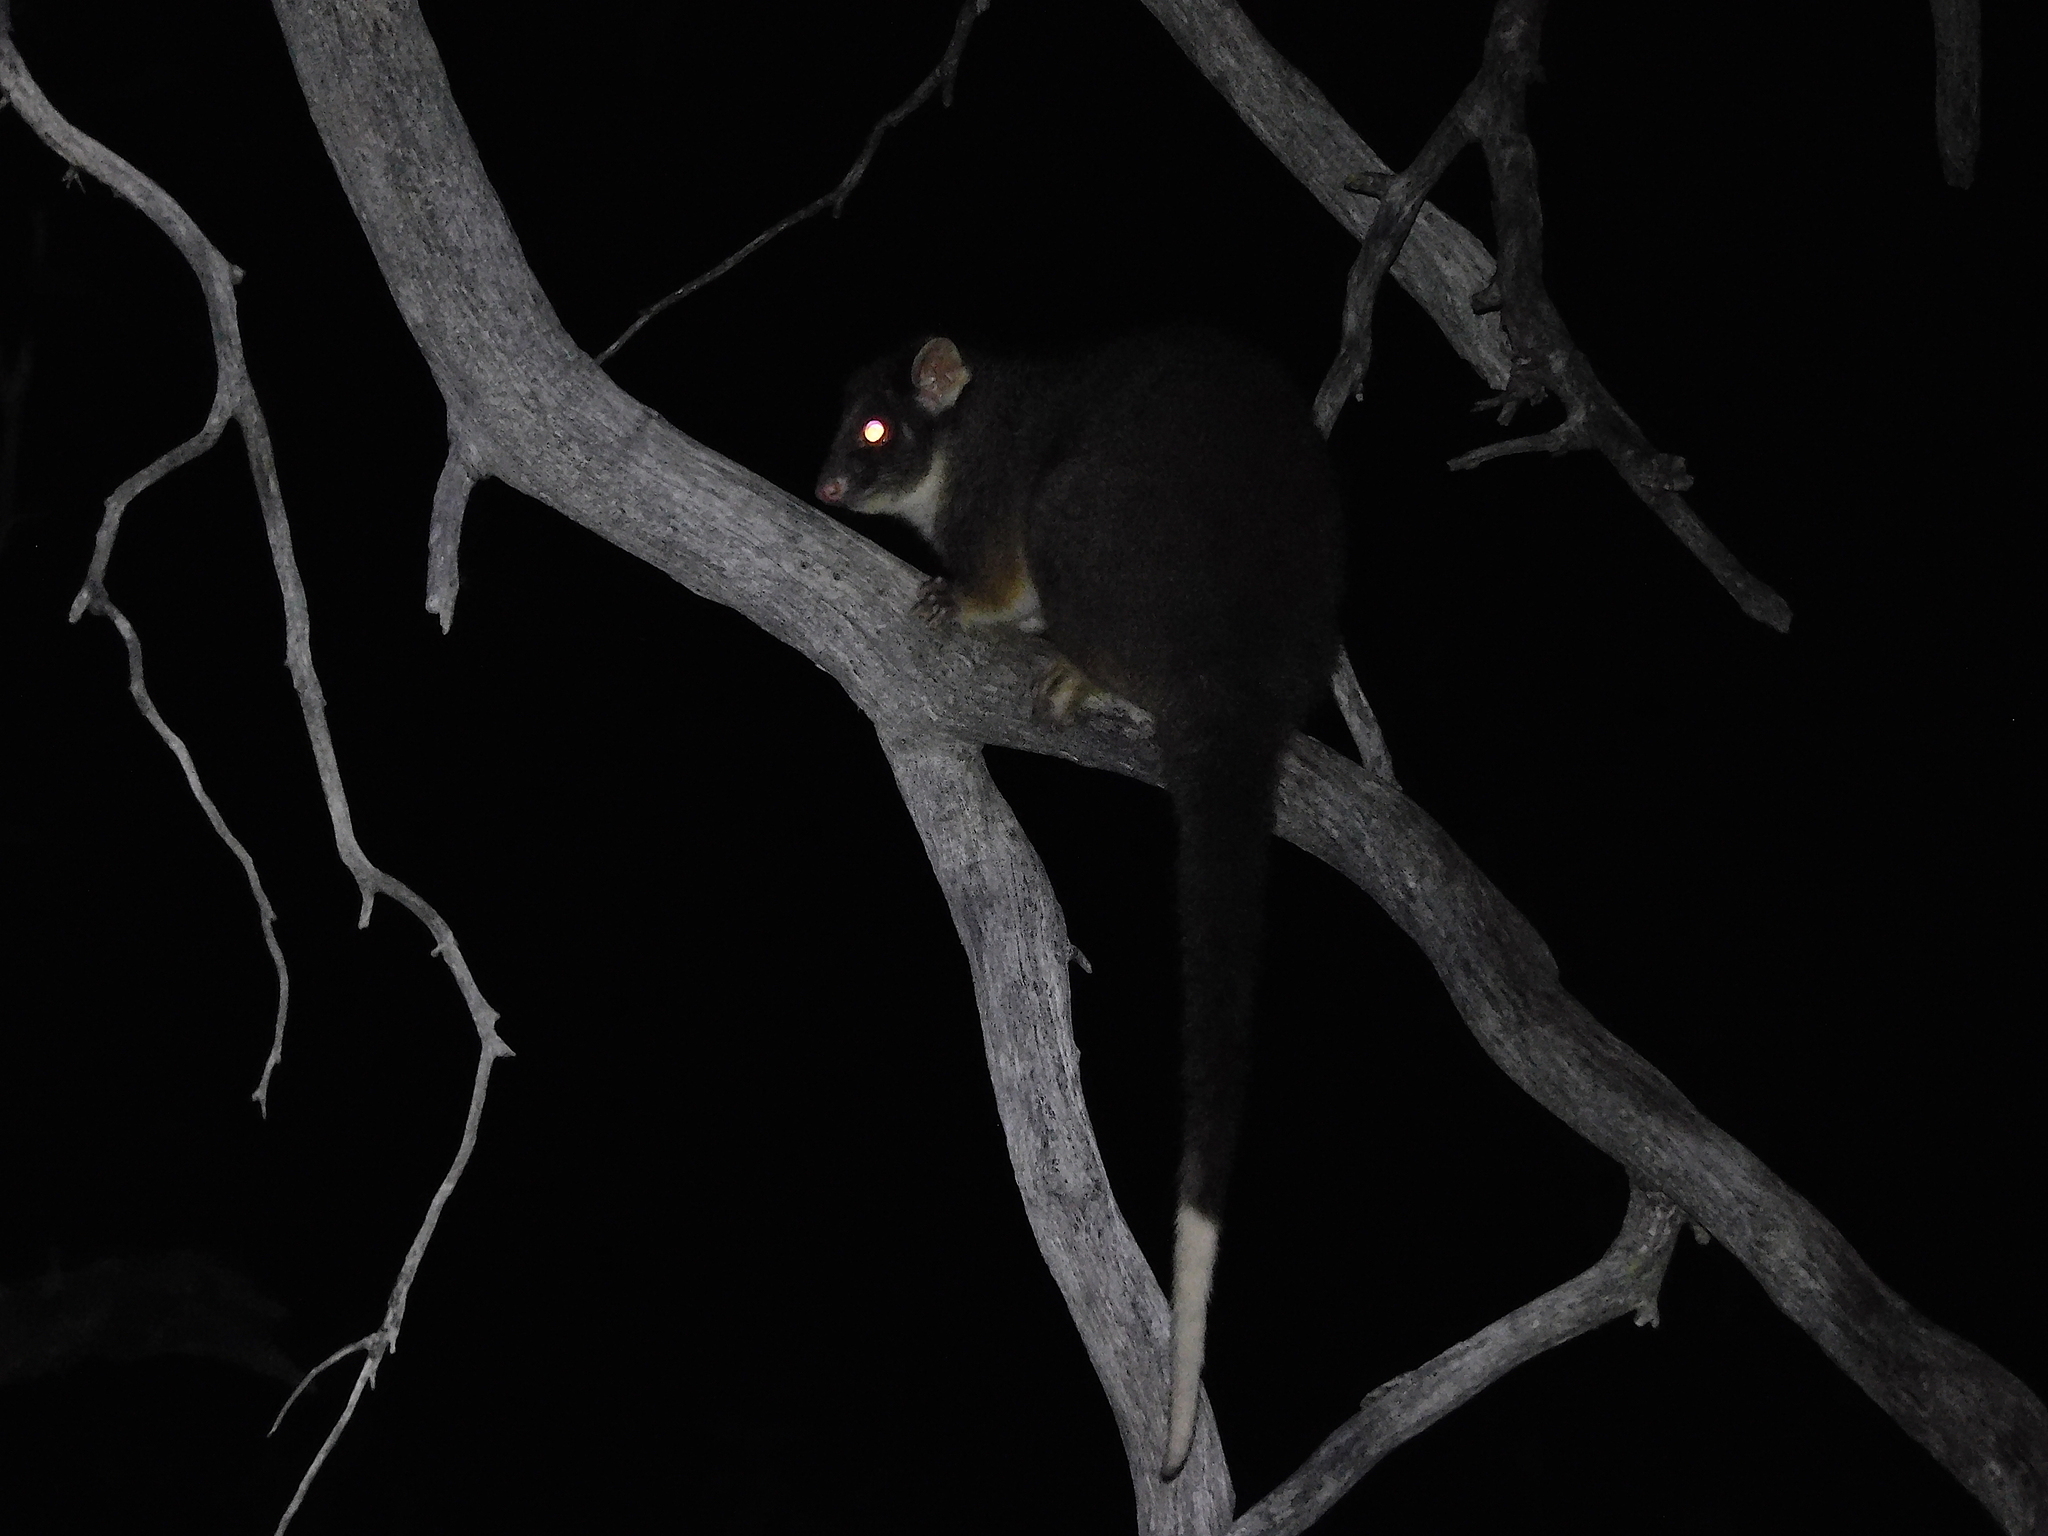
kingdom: Animalia
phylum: Chordata
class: Mammalia
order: Diprotodontia
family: Pseudocheiridae
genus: Pseudocheirus
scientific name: Pseudocheirus peregrinus
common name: Common ringtail possum
